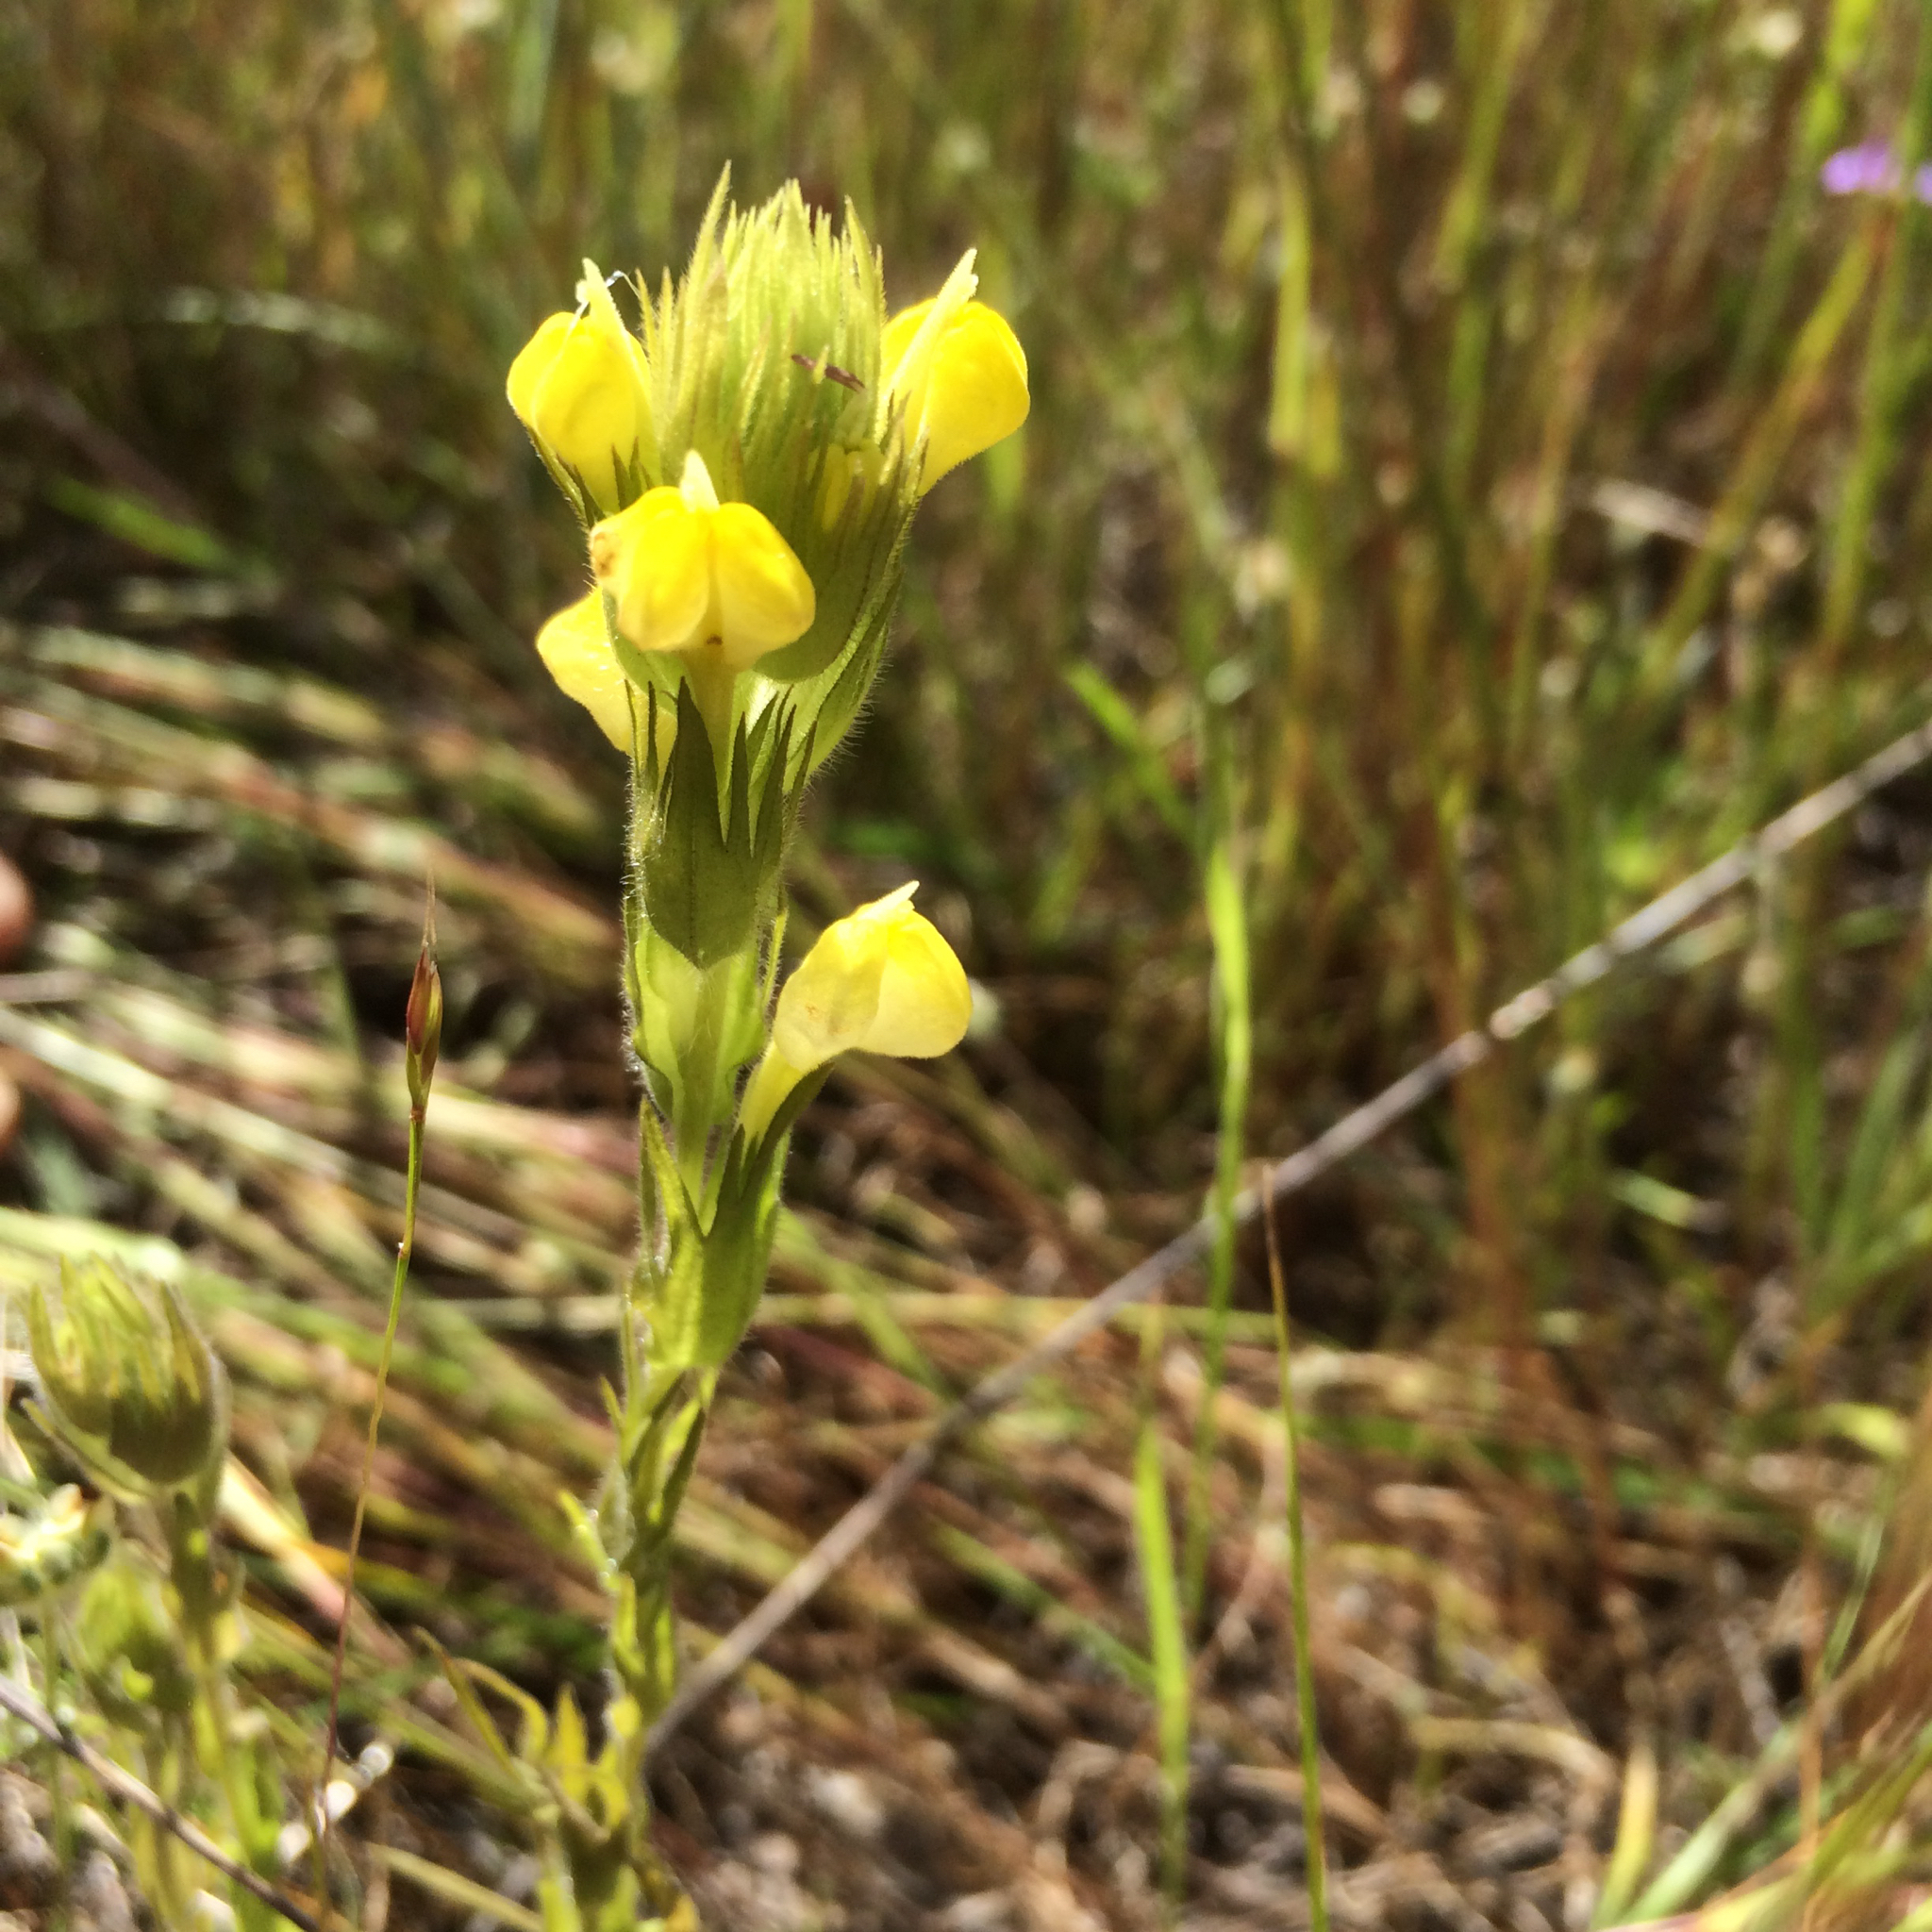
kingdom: Plantae
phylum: Tracheophyta
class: Magnoliopsida
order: Lamiales
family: Orobanchaceae
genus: Castilleja
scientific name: Castilleja rubicundula
